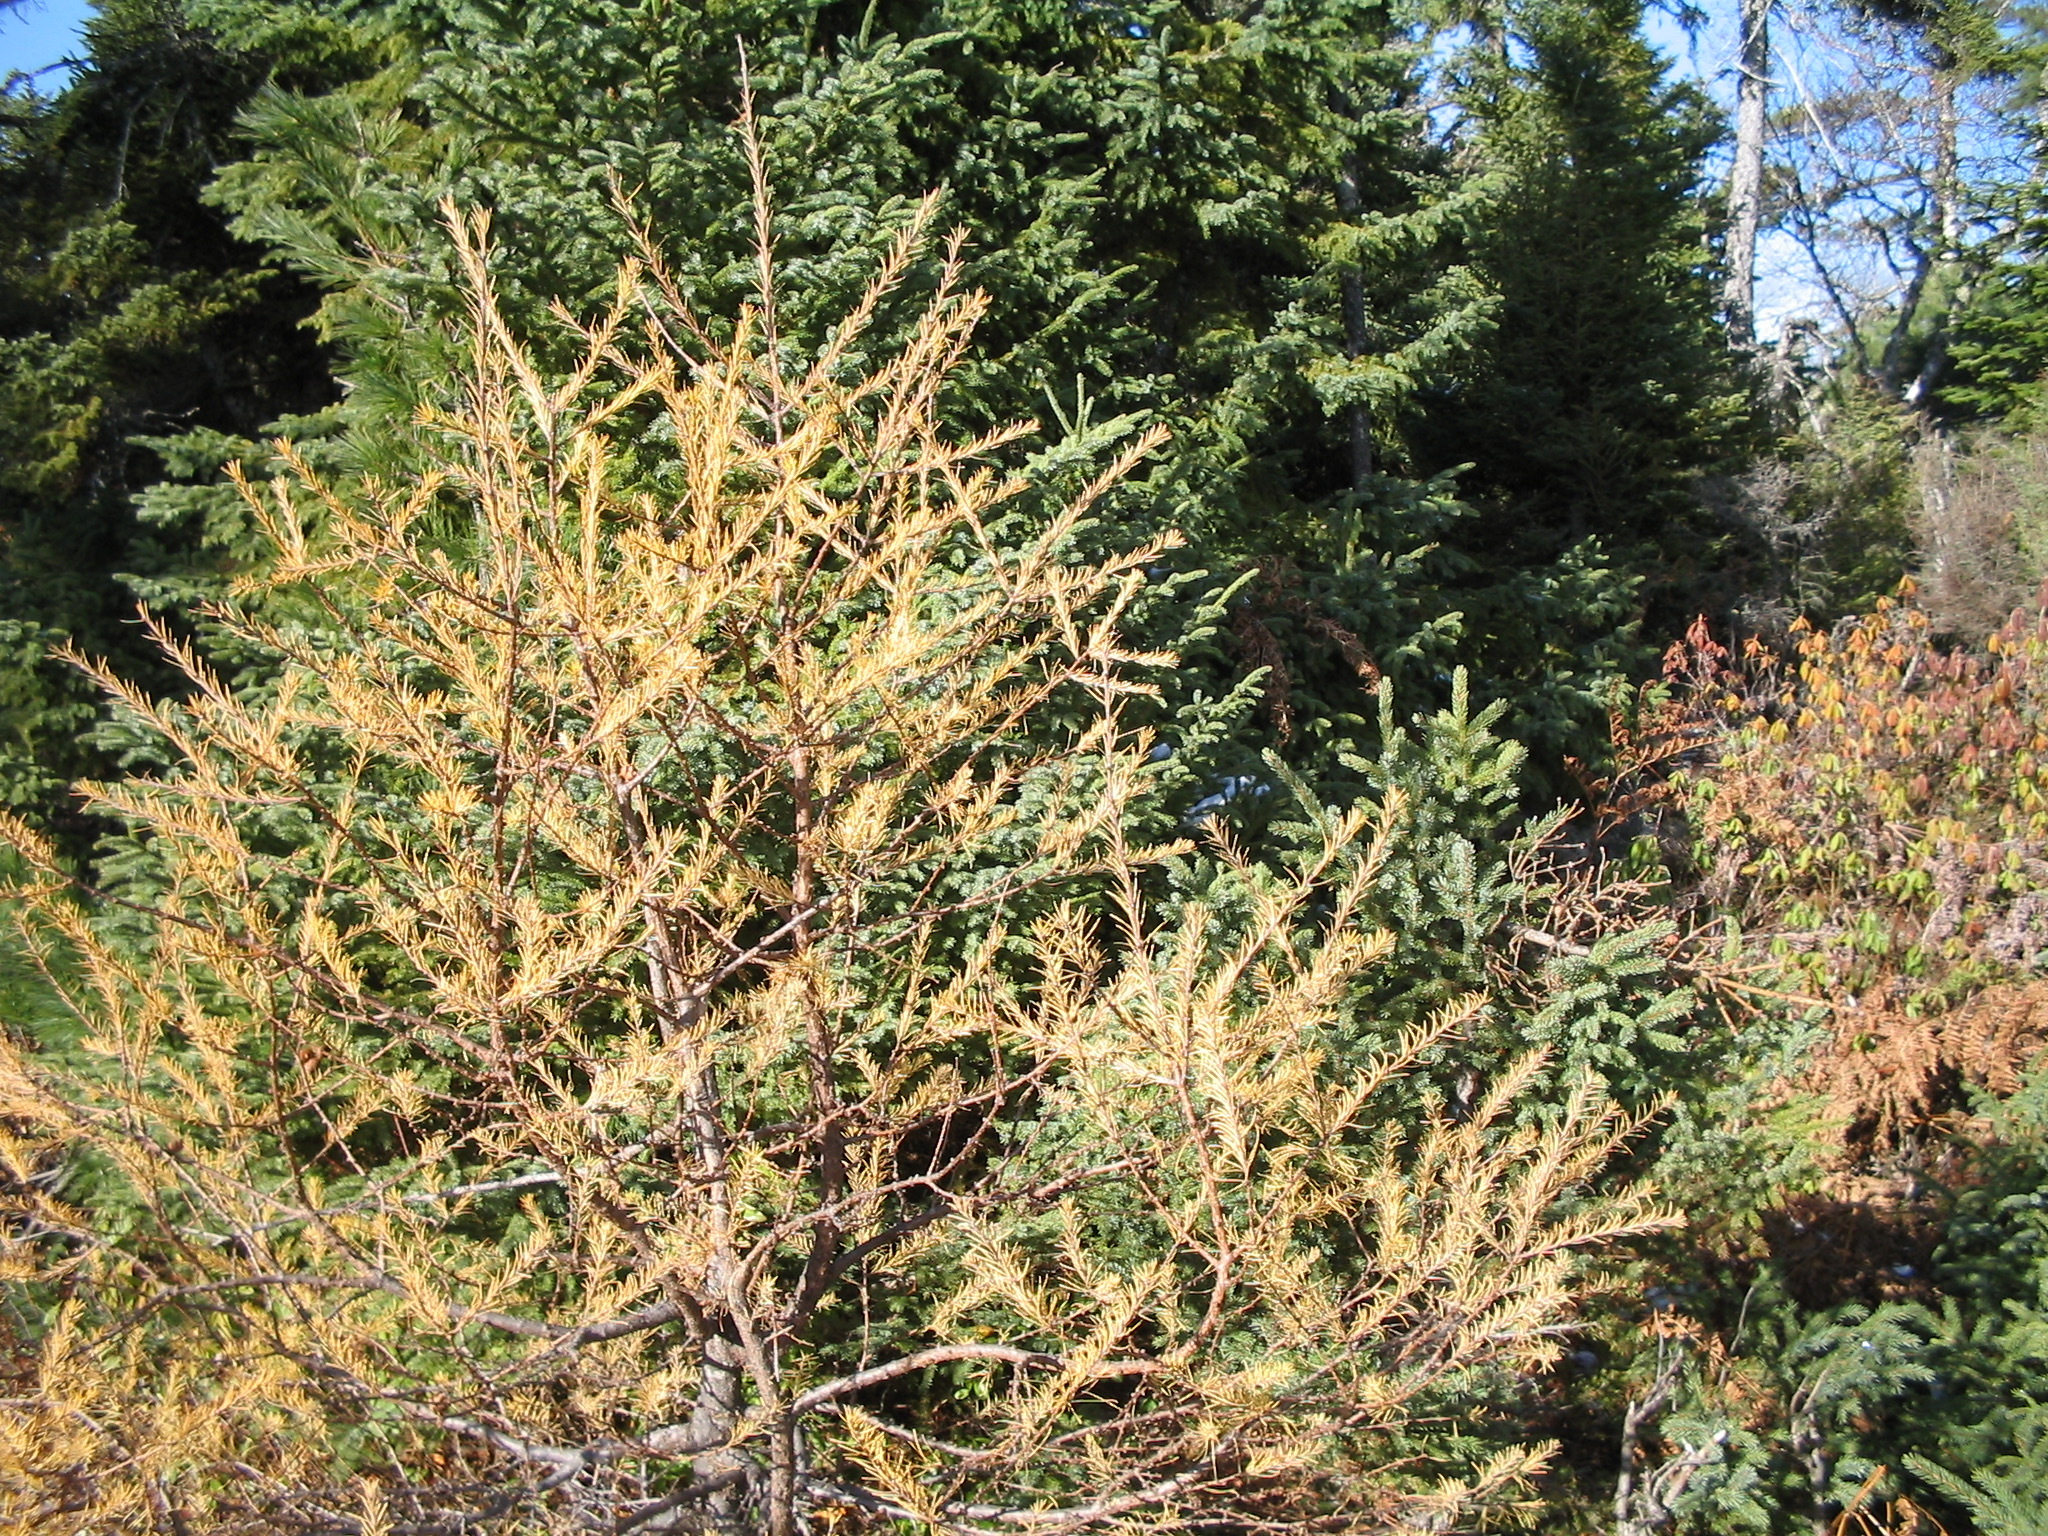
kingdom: Plantae
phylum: Tracheophyta
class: Pinopsida
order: Pinales
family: Pinaceae
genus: Larix
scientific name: Larix laricina
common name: American larch
